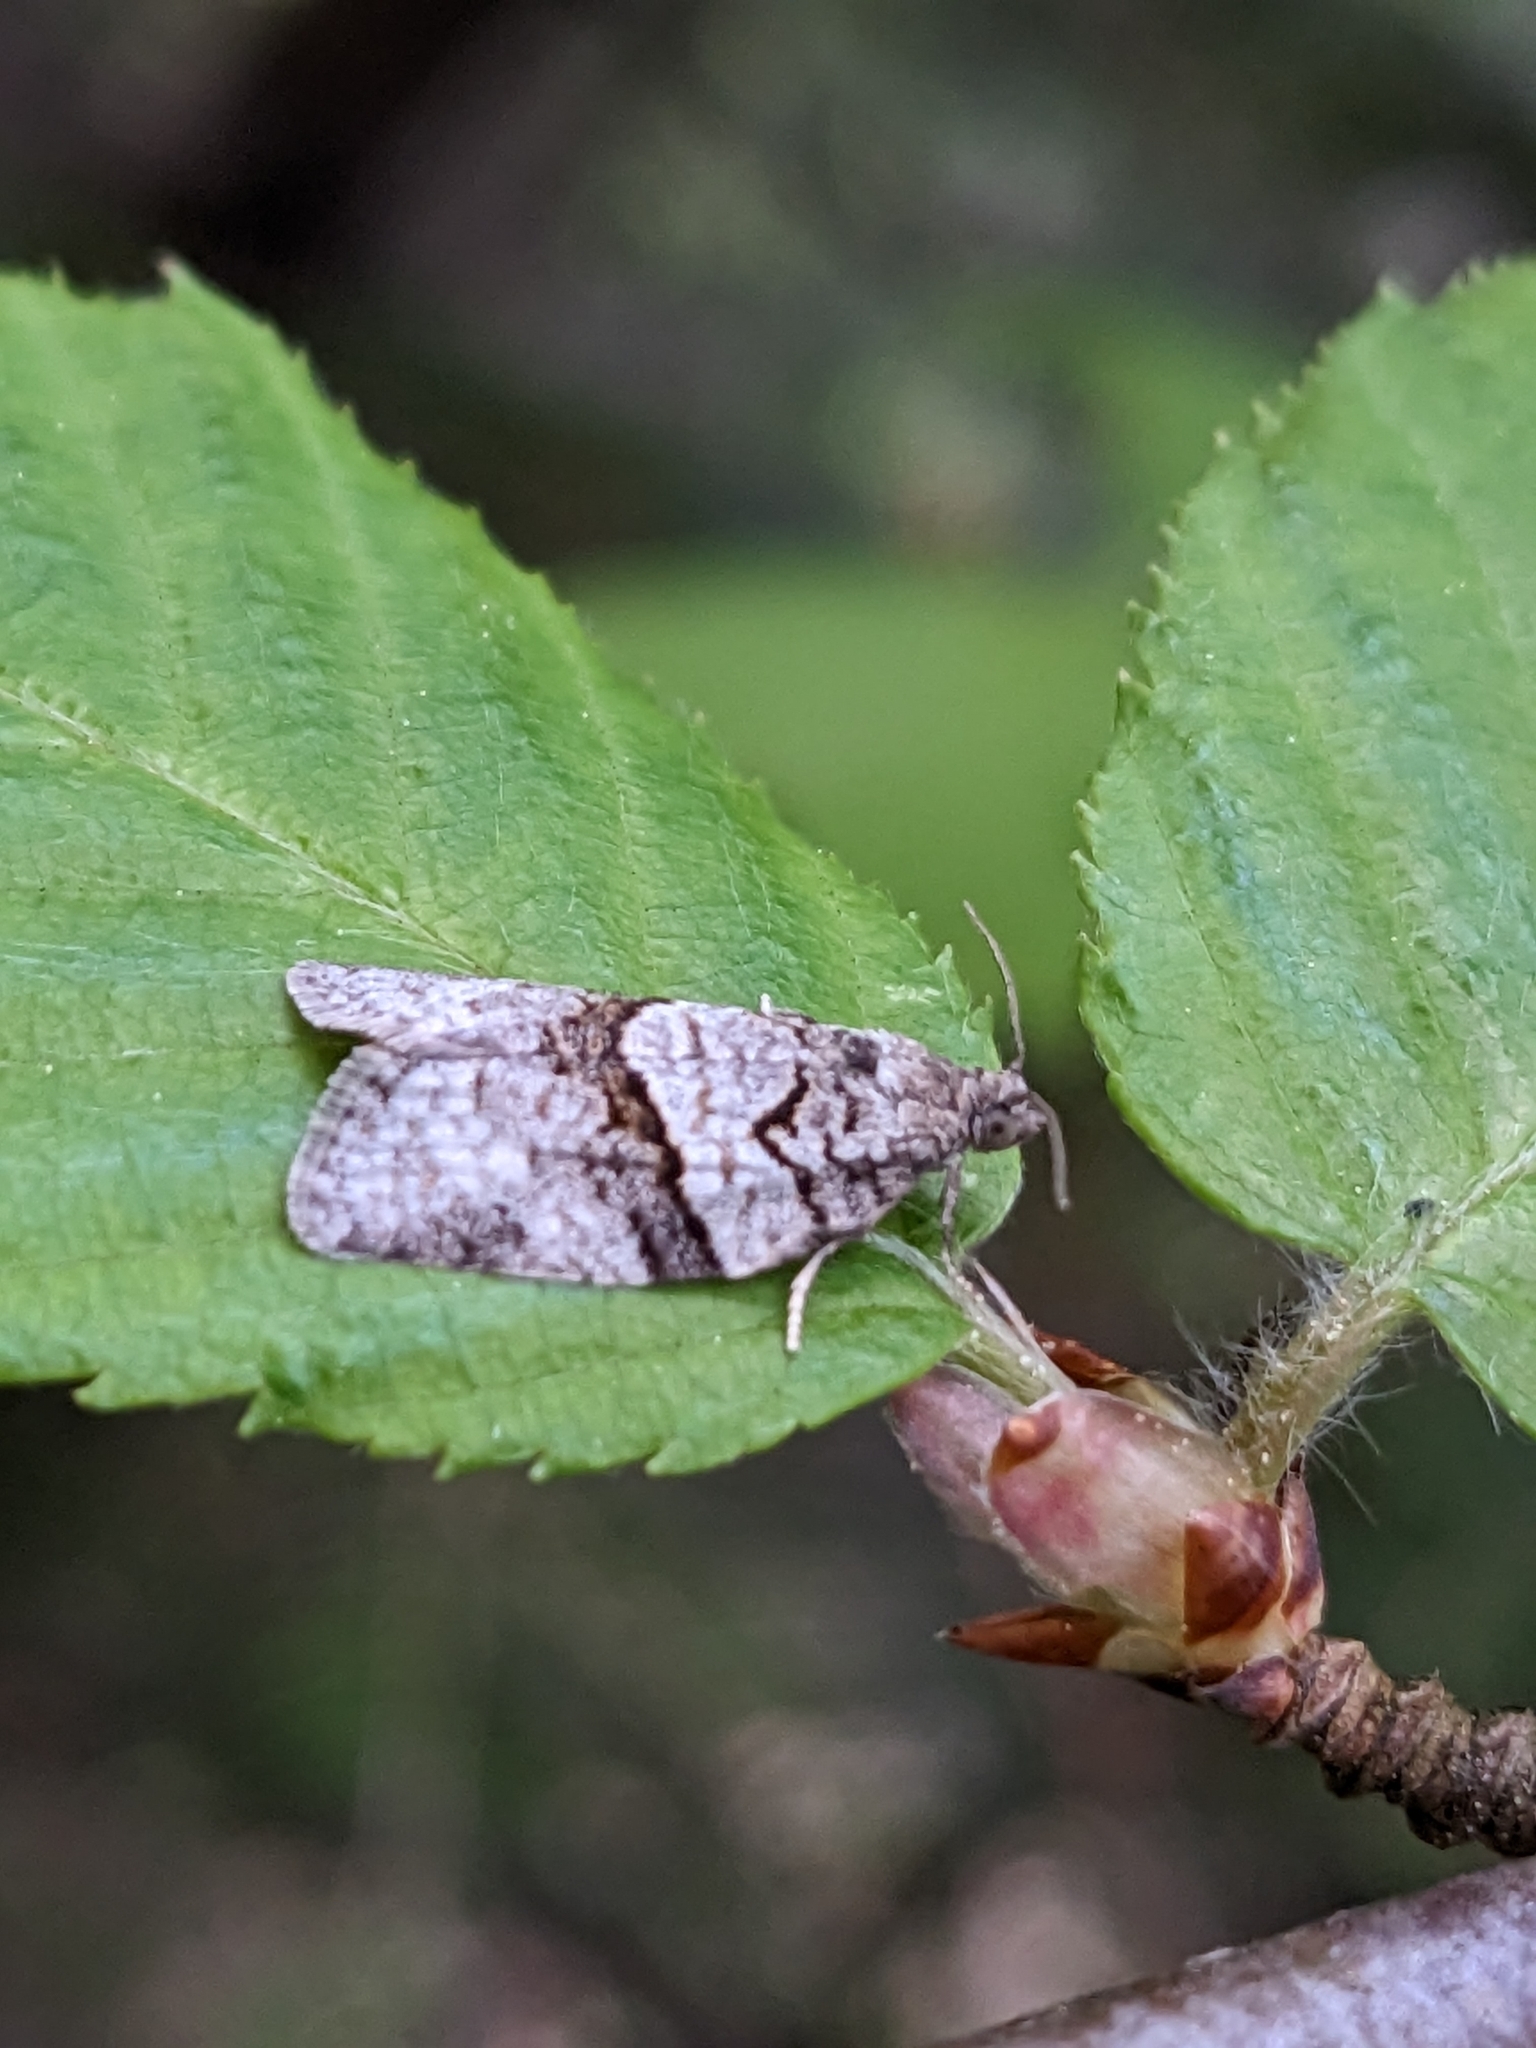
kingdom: Animalia
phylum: Arthropoda
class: Insecta
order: Lepidoptera
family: Tortricidae
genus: Syndemis
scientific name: Syndemis afflictana
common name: Gray leafroller moth
